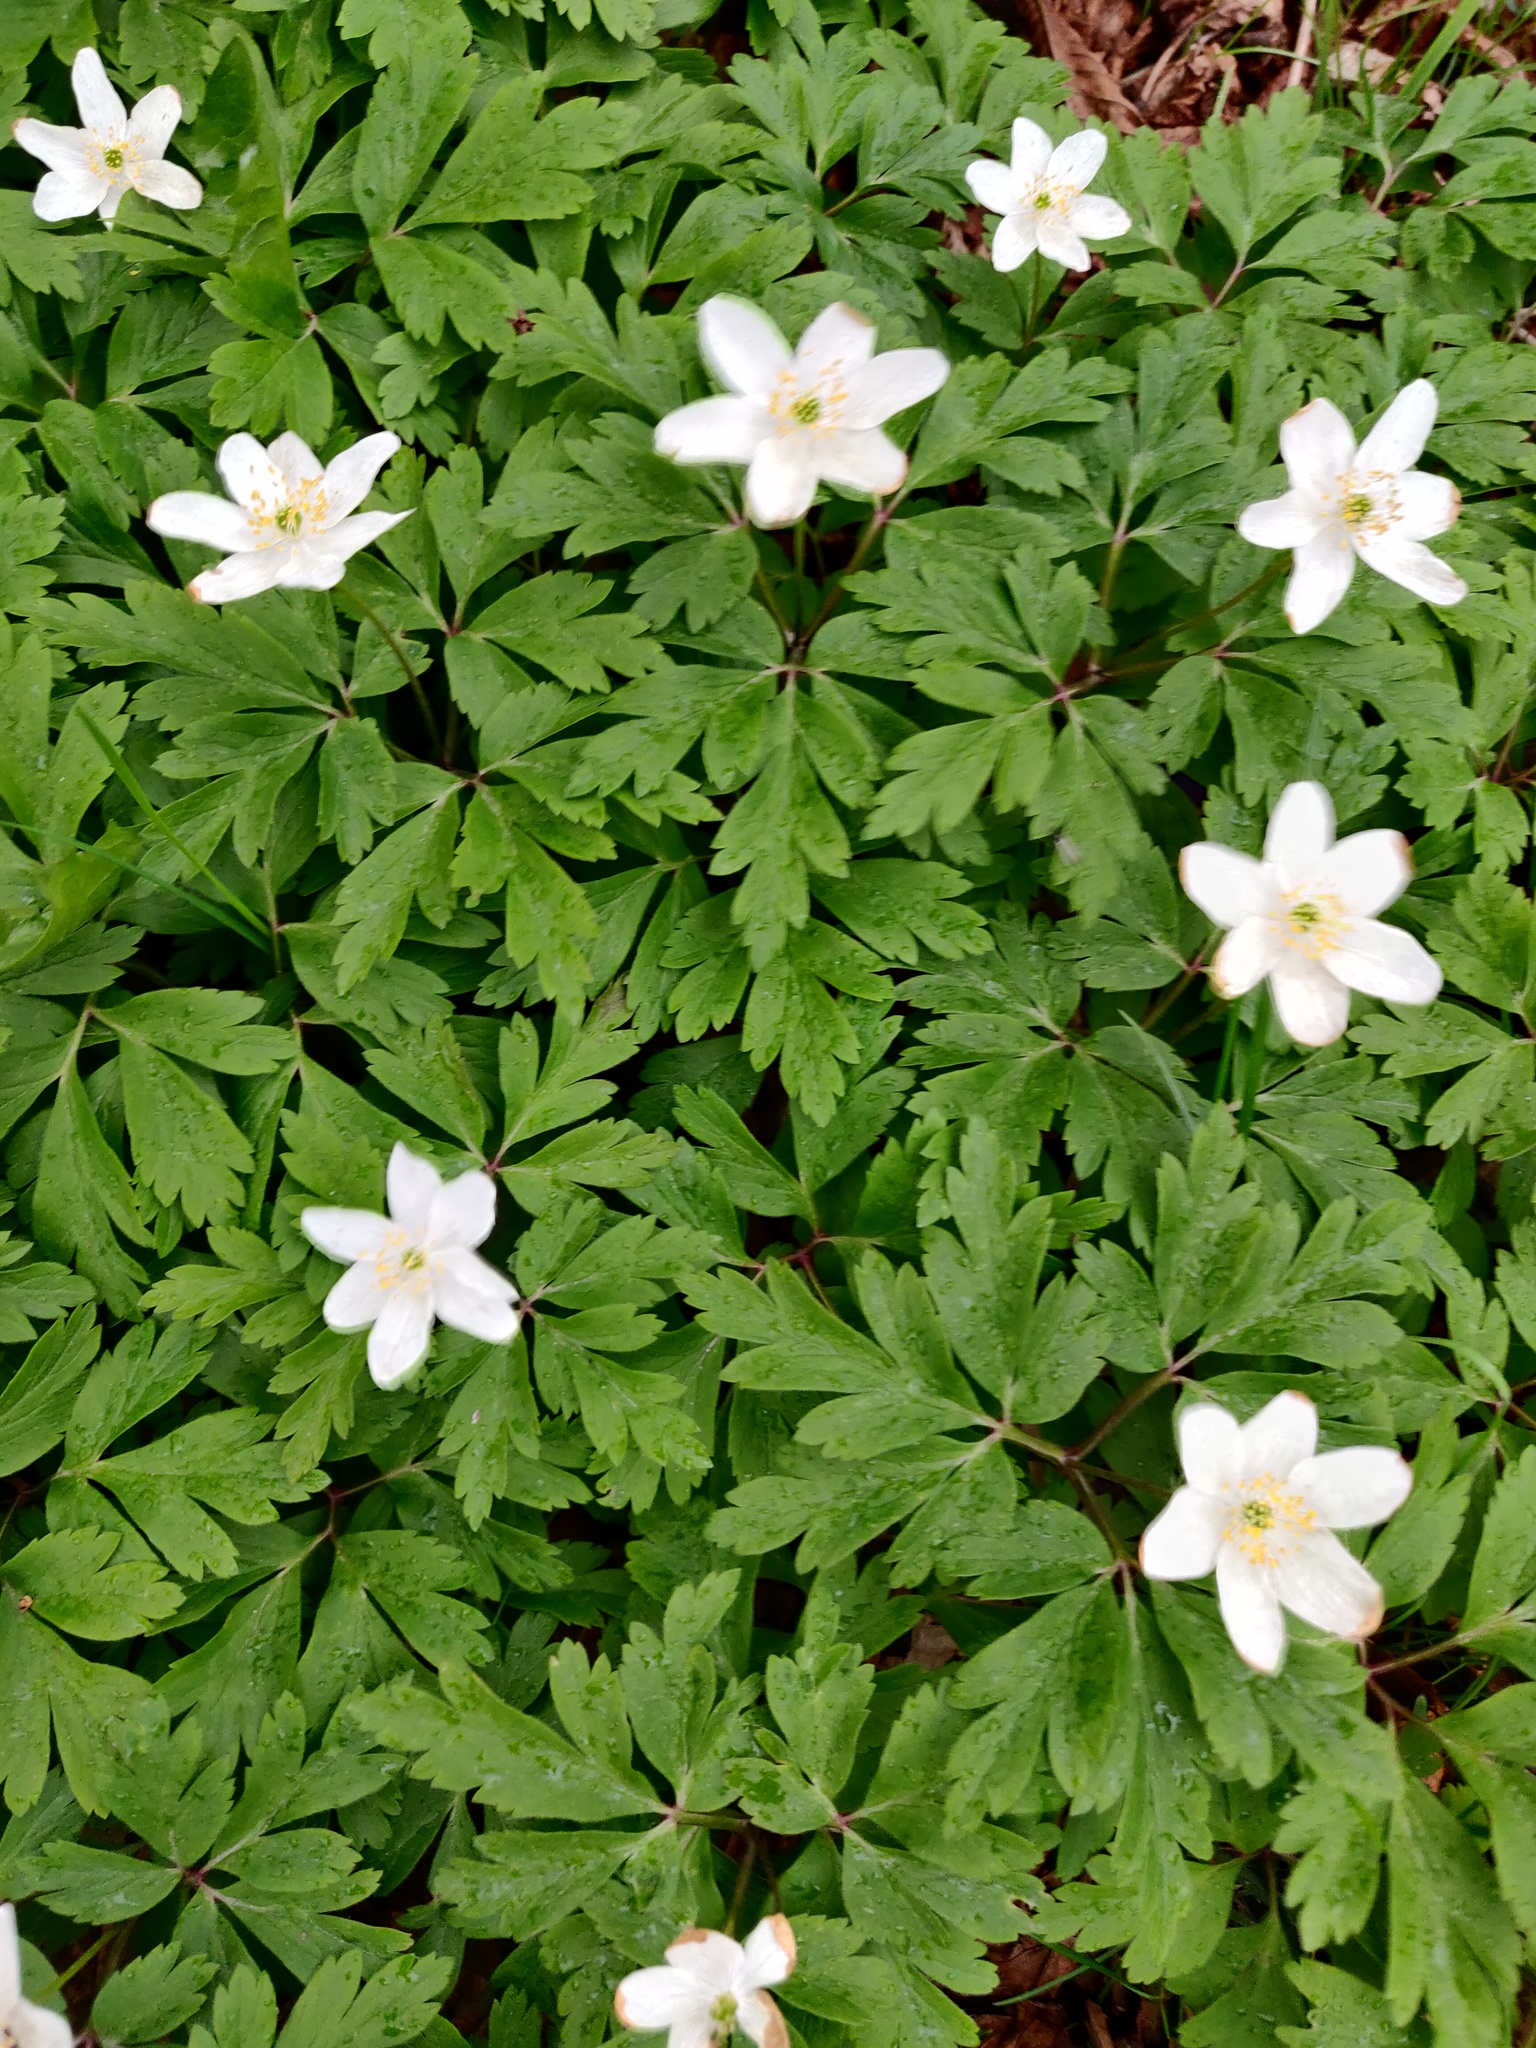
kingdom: Plantae
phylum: Tracheophyta
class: Magnoliopsida
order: Ranunculales
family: Ranunculaceae
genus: Anemone
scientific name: Anemone nemorosa
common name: Wood anemone
